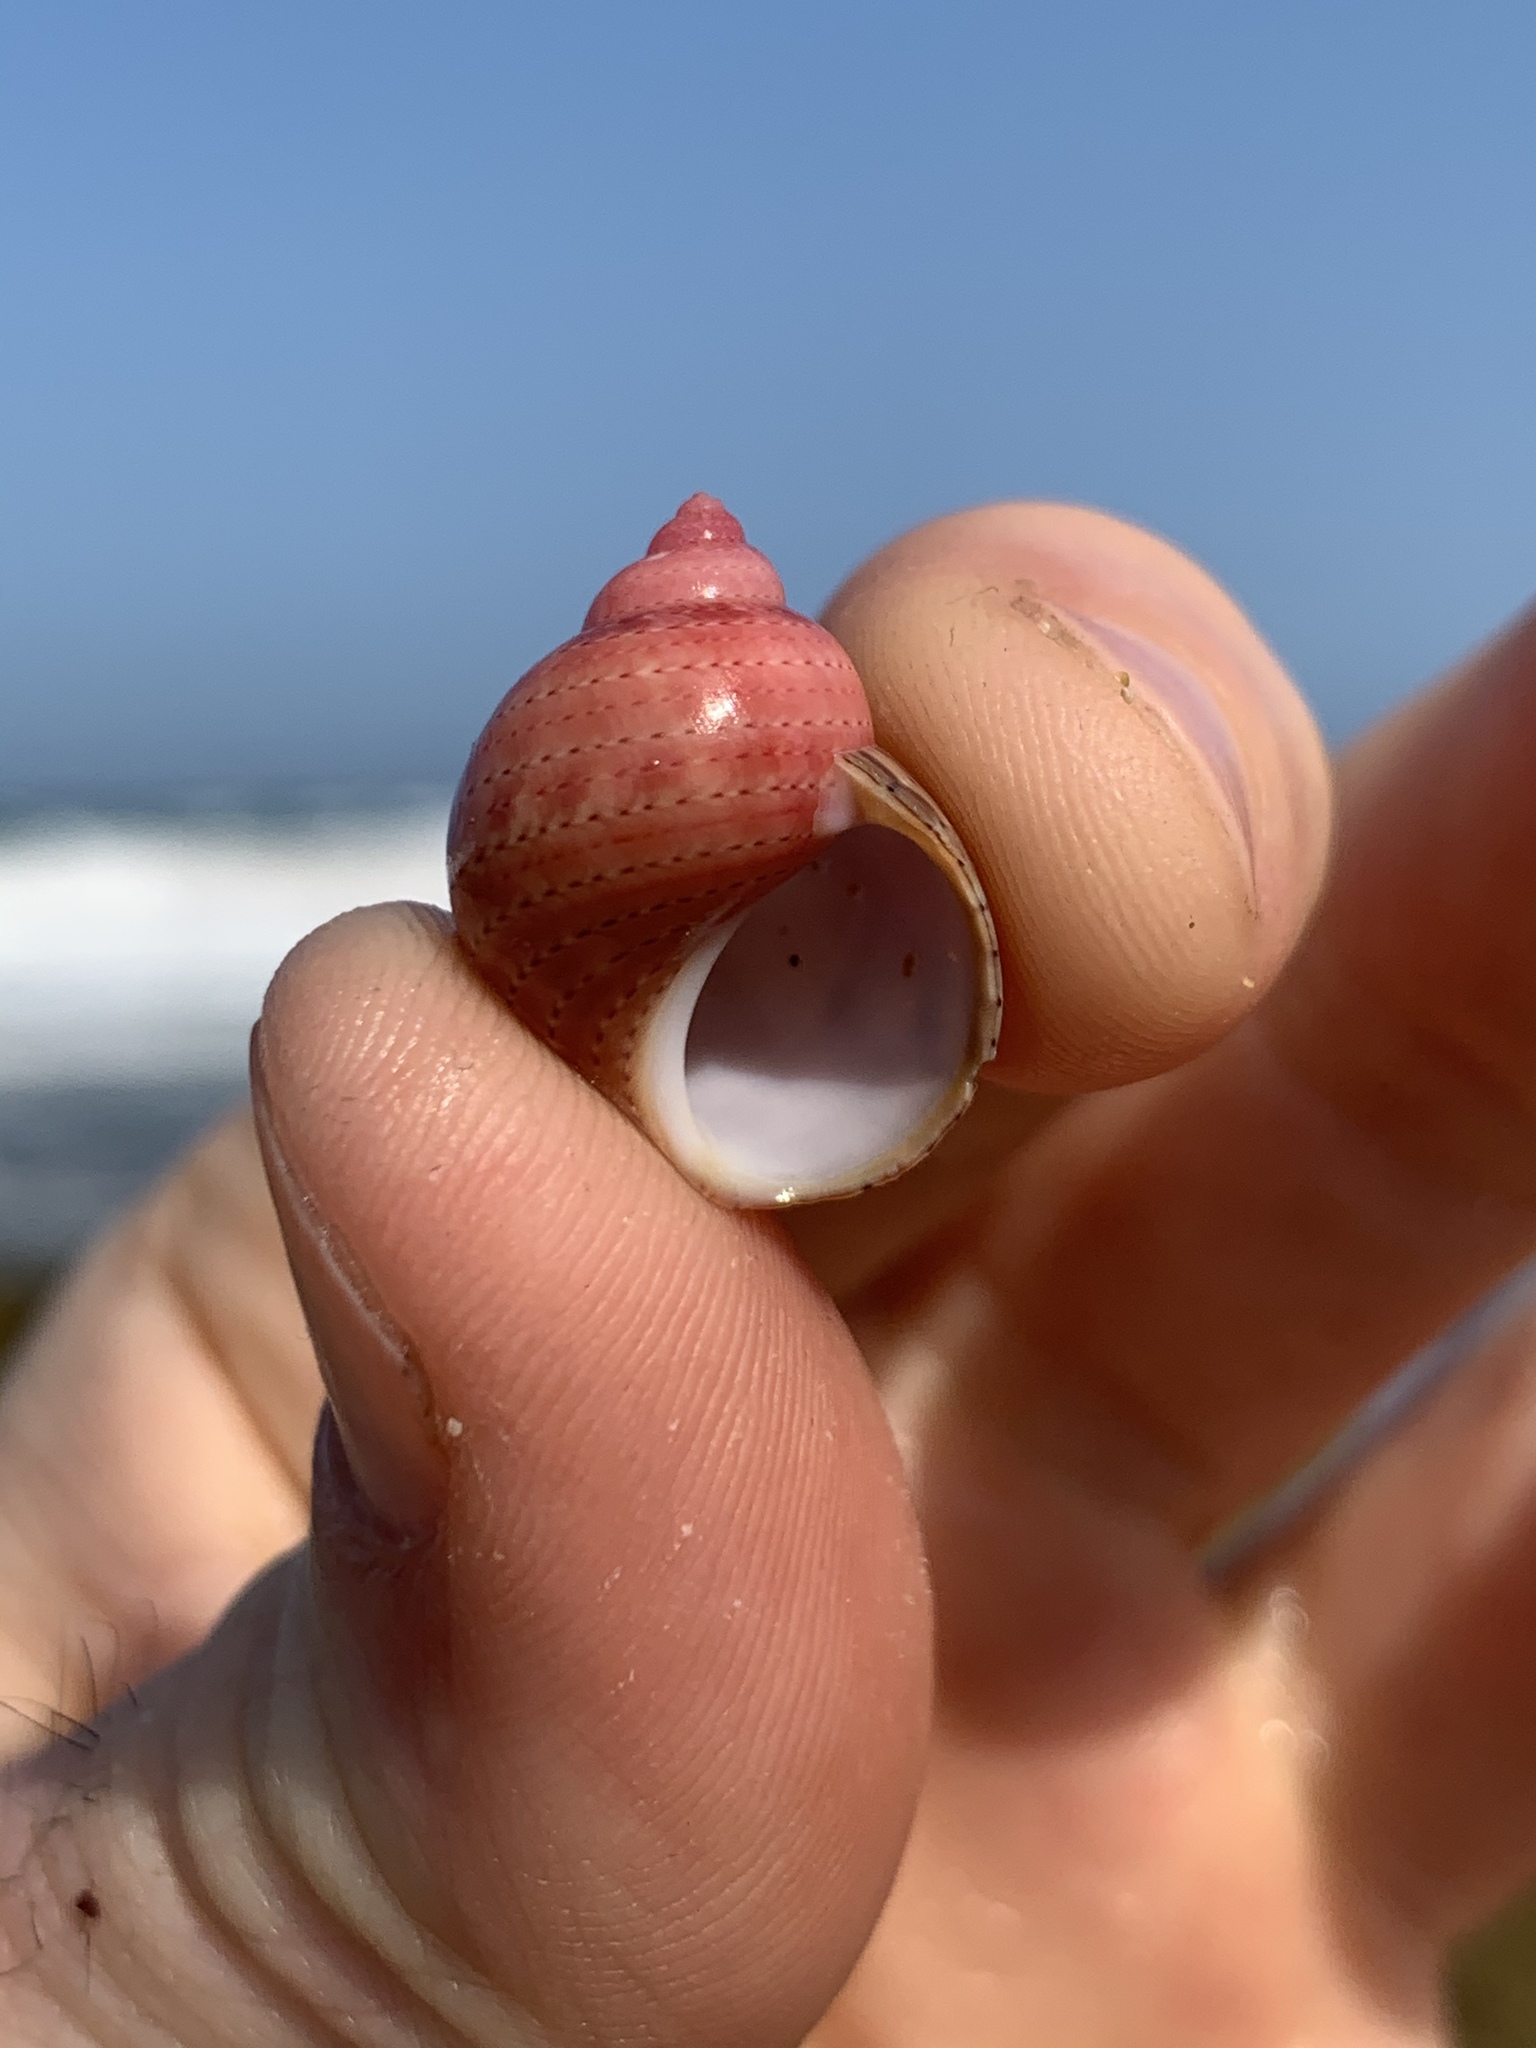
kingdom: Animalia
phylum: Mollusca
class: Gastropoda
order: Trochida
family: Phasianellidae
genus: Phasianella
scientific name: Phasianella ventricosa
